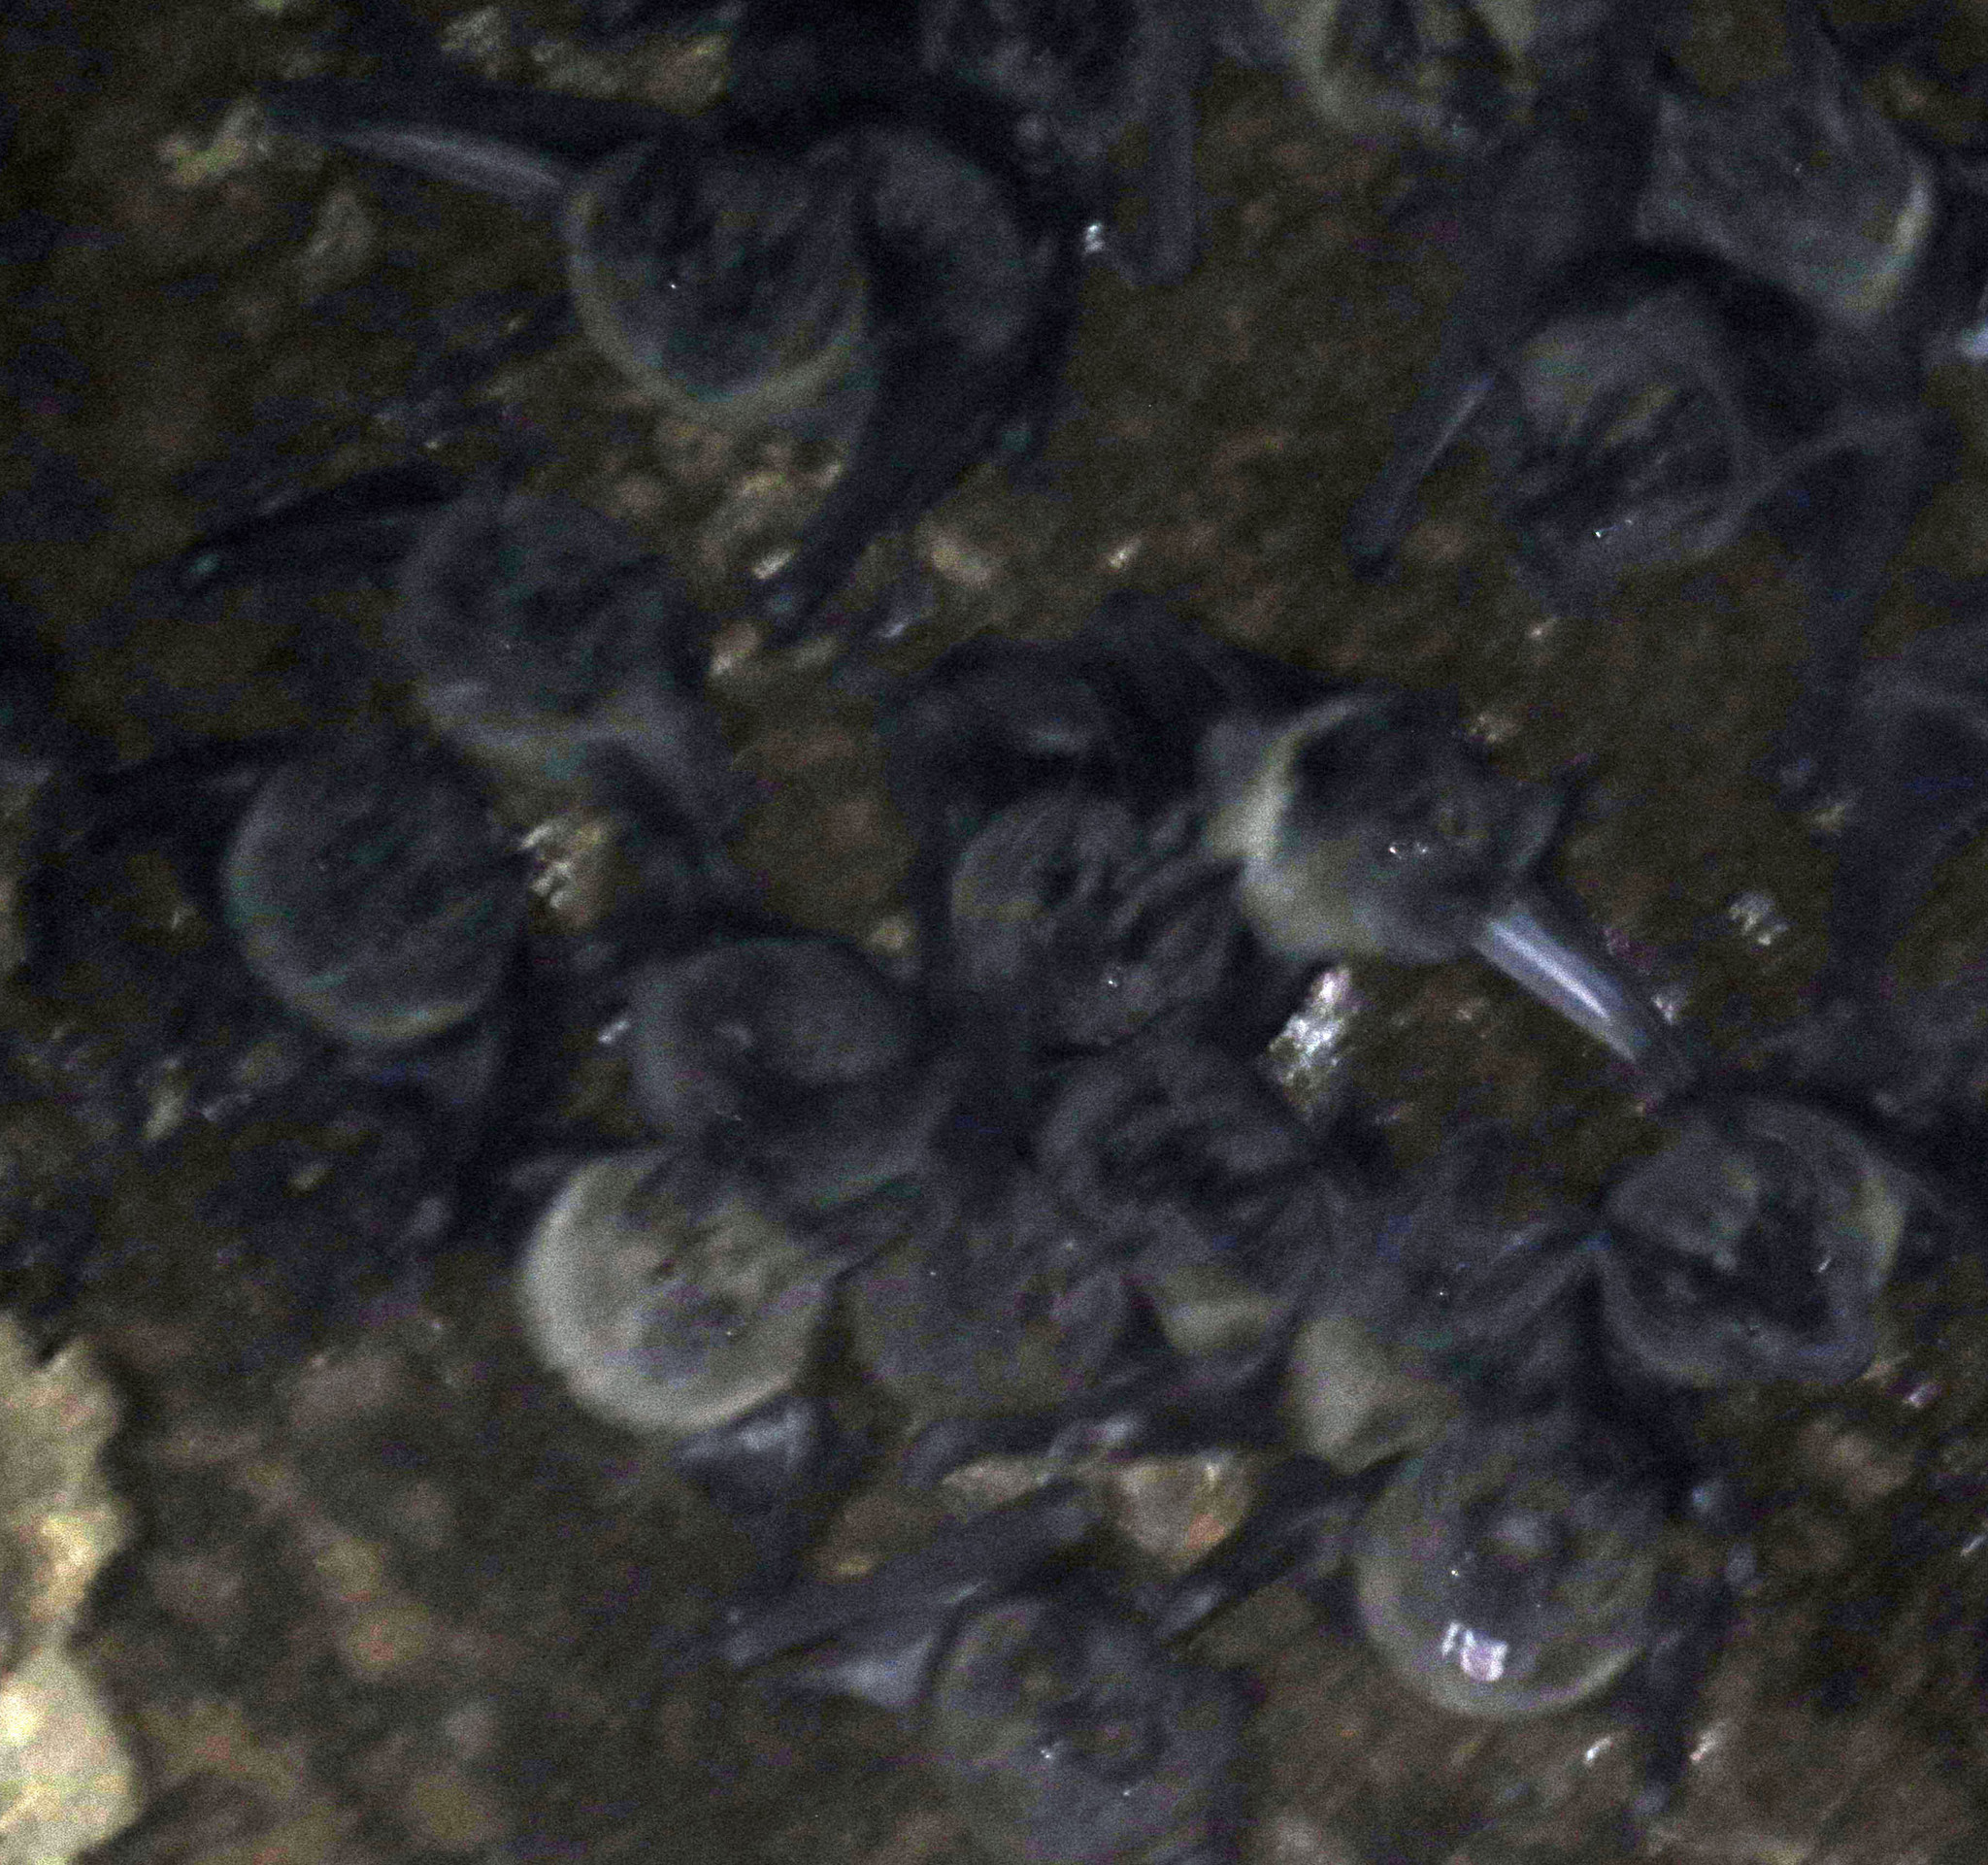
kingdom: Animalia
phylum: Chordata
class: Mammalia
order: Chiroptera
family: Phyllostomidae
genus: Phyllostomus
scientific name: Phyllostomus hastatus
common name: Greater spear-nosed bat
